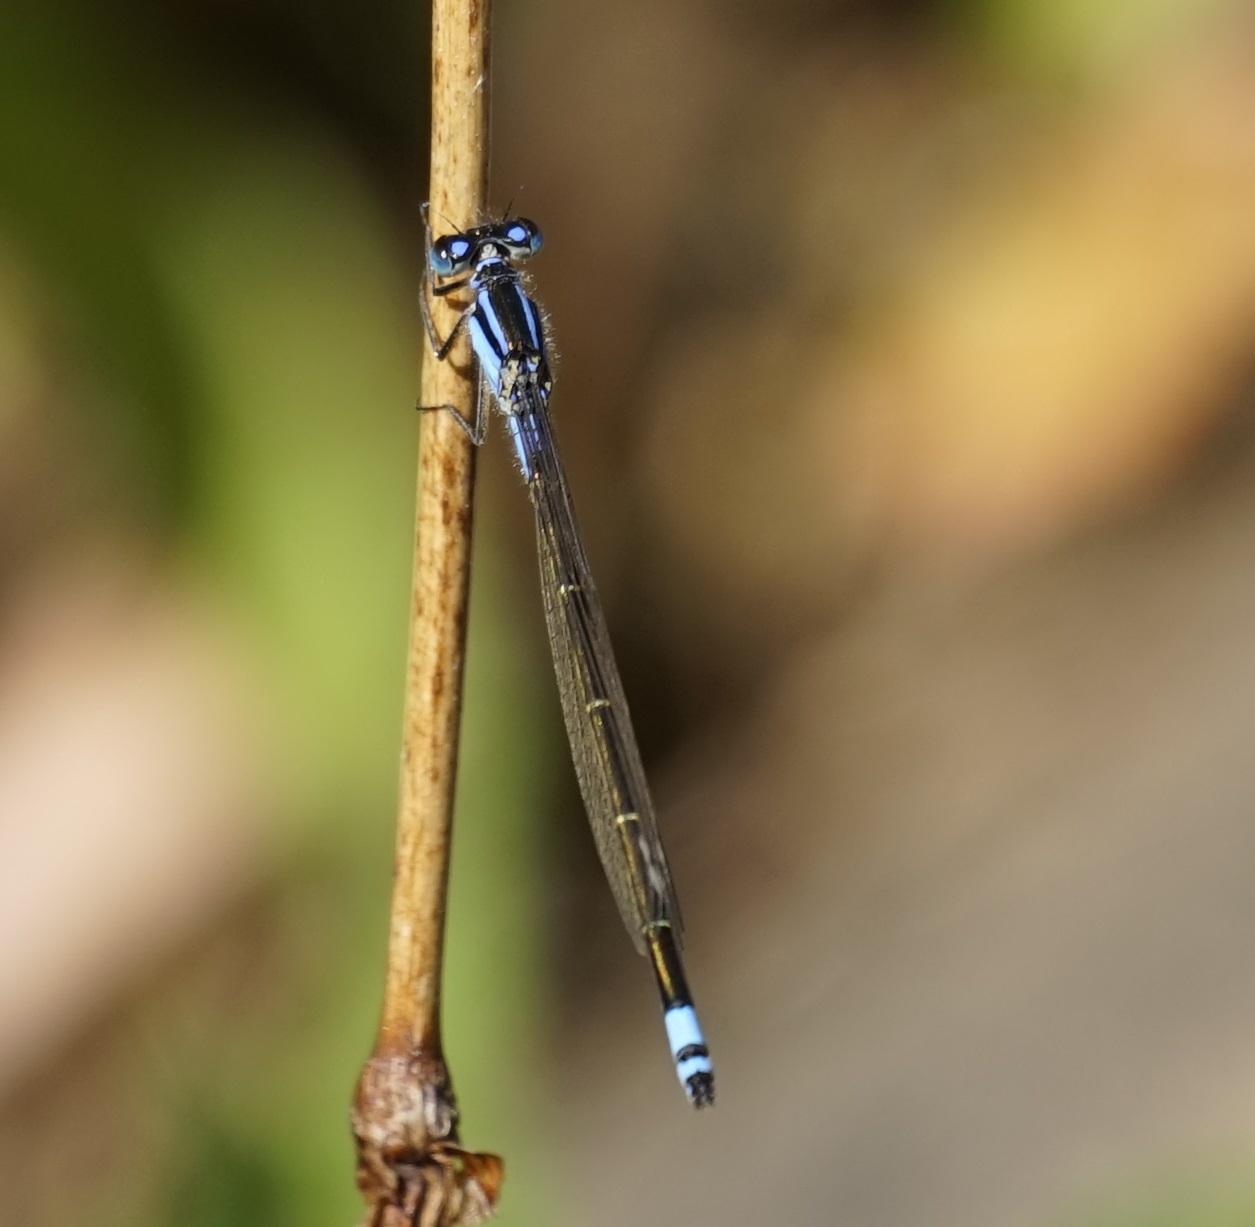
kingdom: Animalia
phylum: Arthropoda
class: Insecta
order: Odonata
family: Coenagrionidae
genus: Ischnura
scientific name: Ischnura heterosticta
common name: Common bluetail
